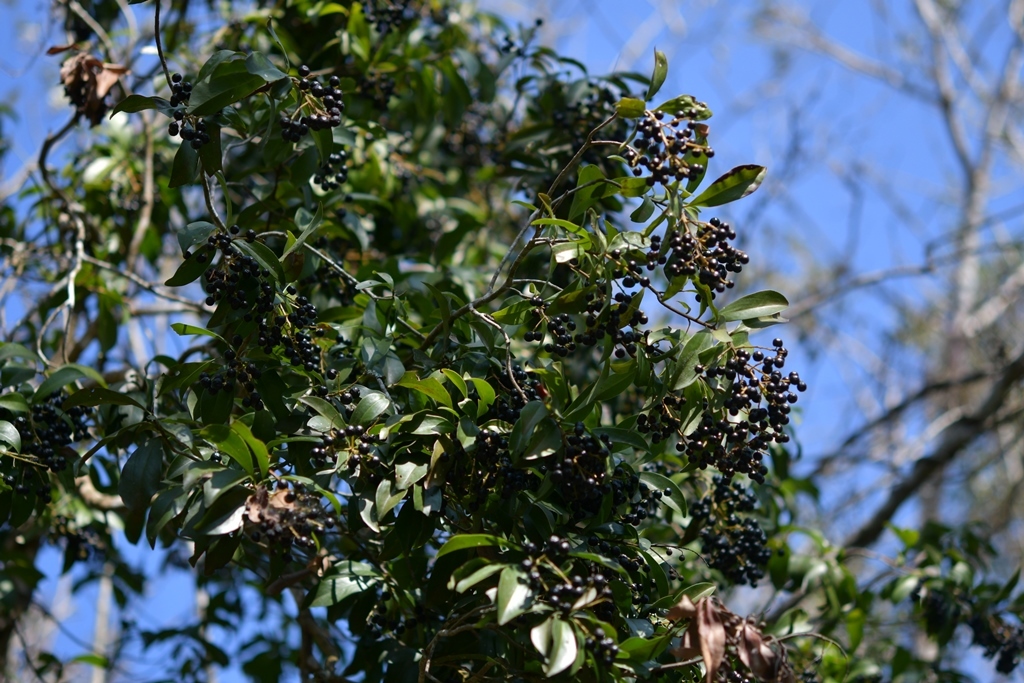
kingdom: Plantae
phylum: Tracheophyta
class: Magnoliopsida
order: Ericales
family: Primulaceae
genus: Ardisia
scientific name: Ardisia escallonioides
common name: Island marlberry
